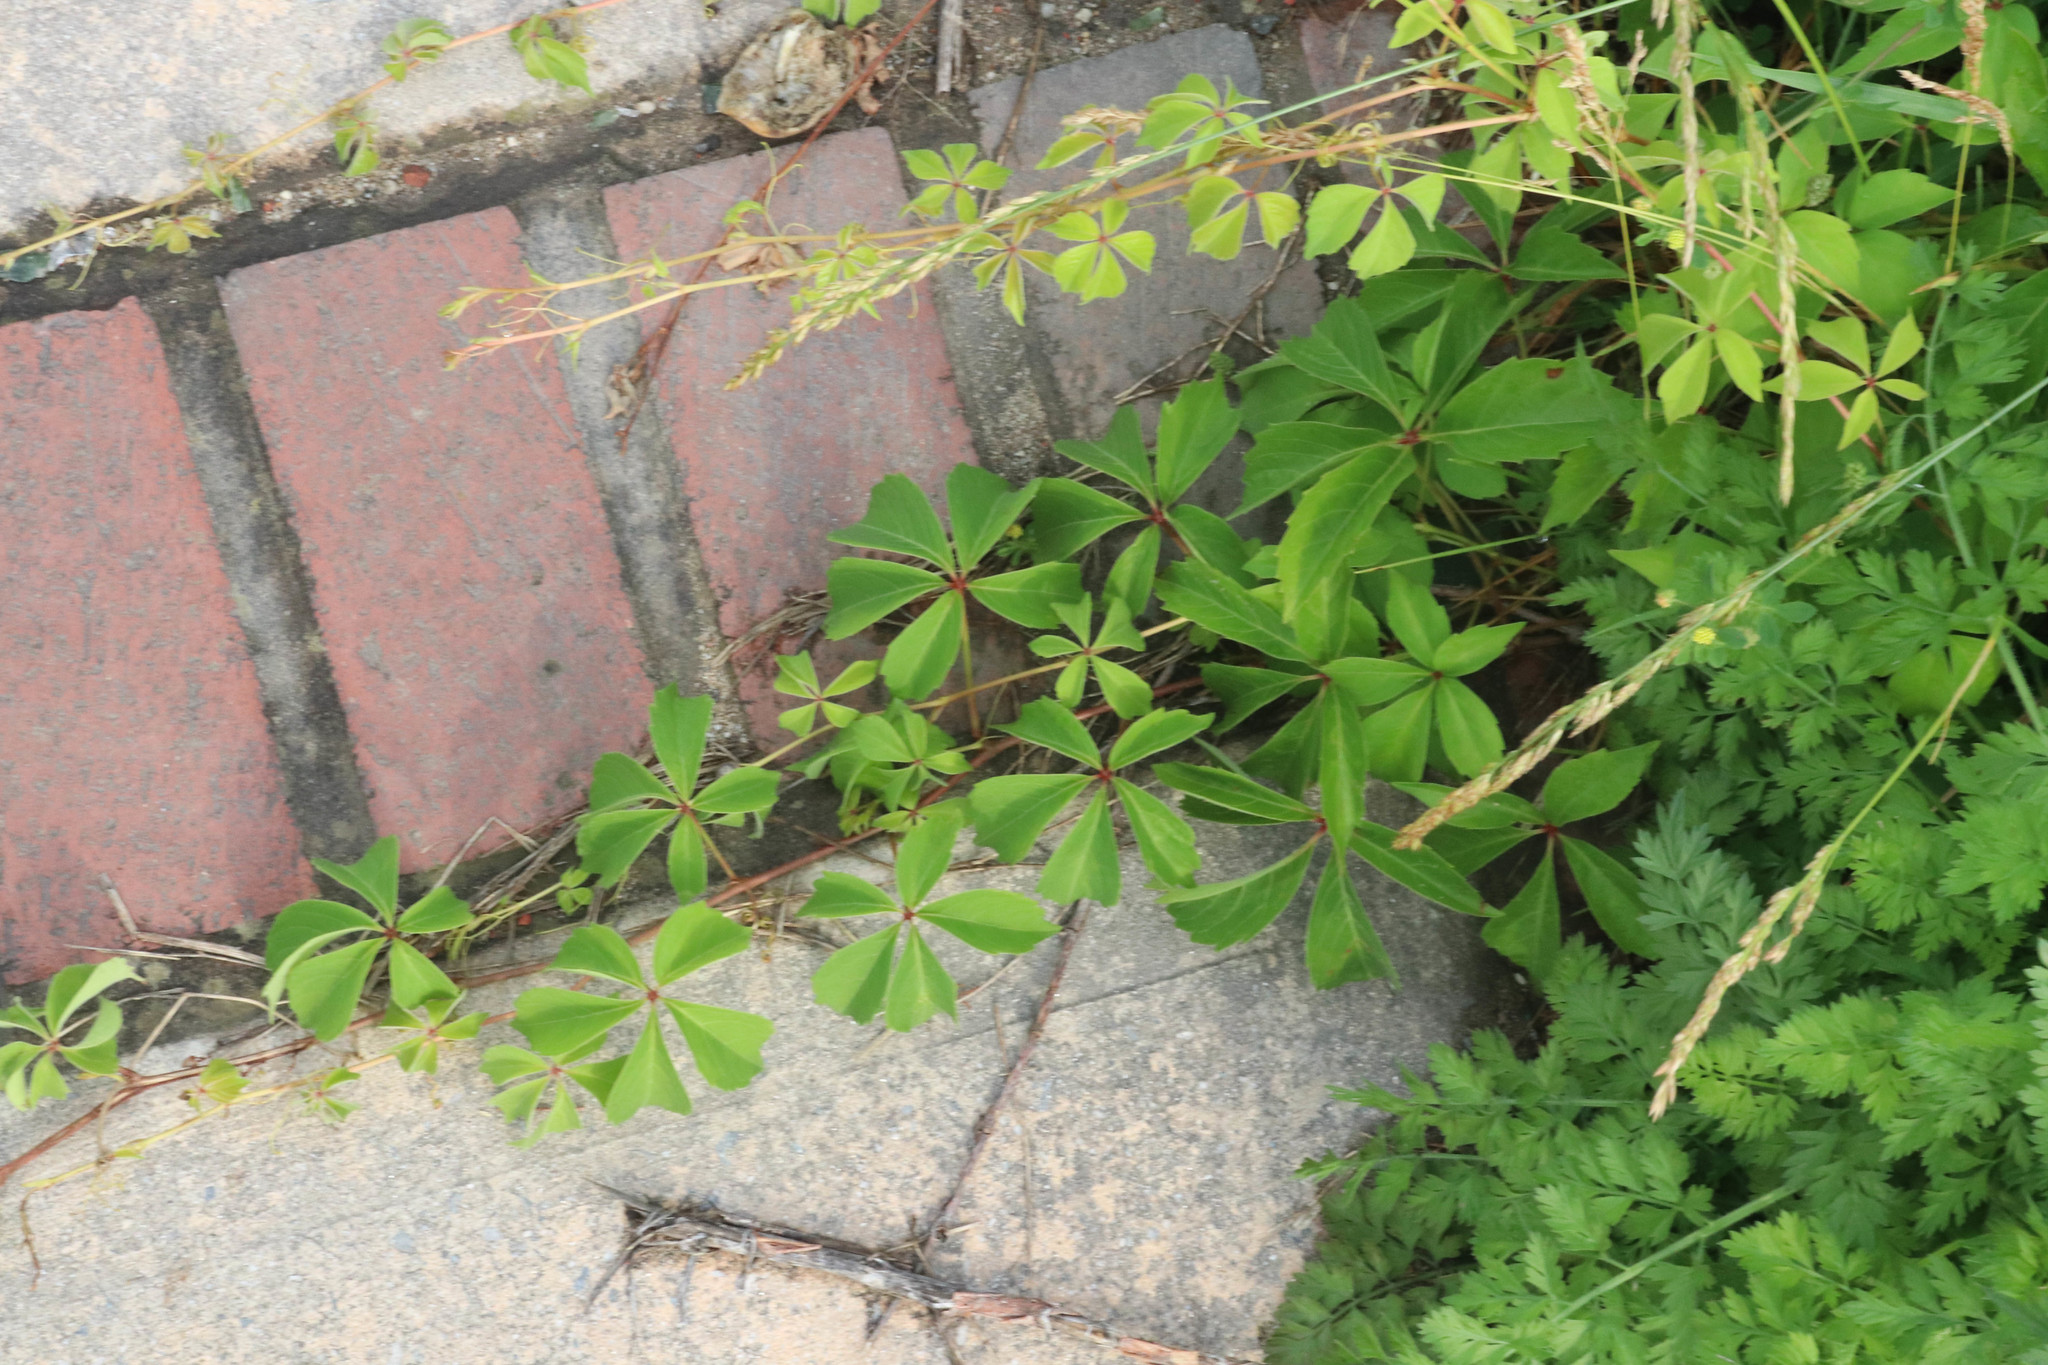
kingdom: Plantae
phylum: Tracheophyta
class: Magnoliopsida
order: Vitales
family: Vitaceae
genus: Parthenocissus
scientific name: Parthenocissus quinquefolia
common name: Virginia-creeper
